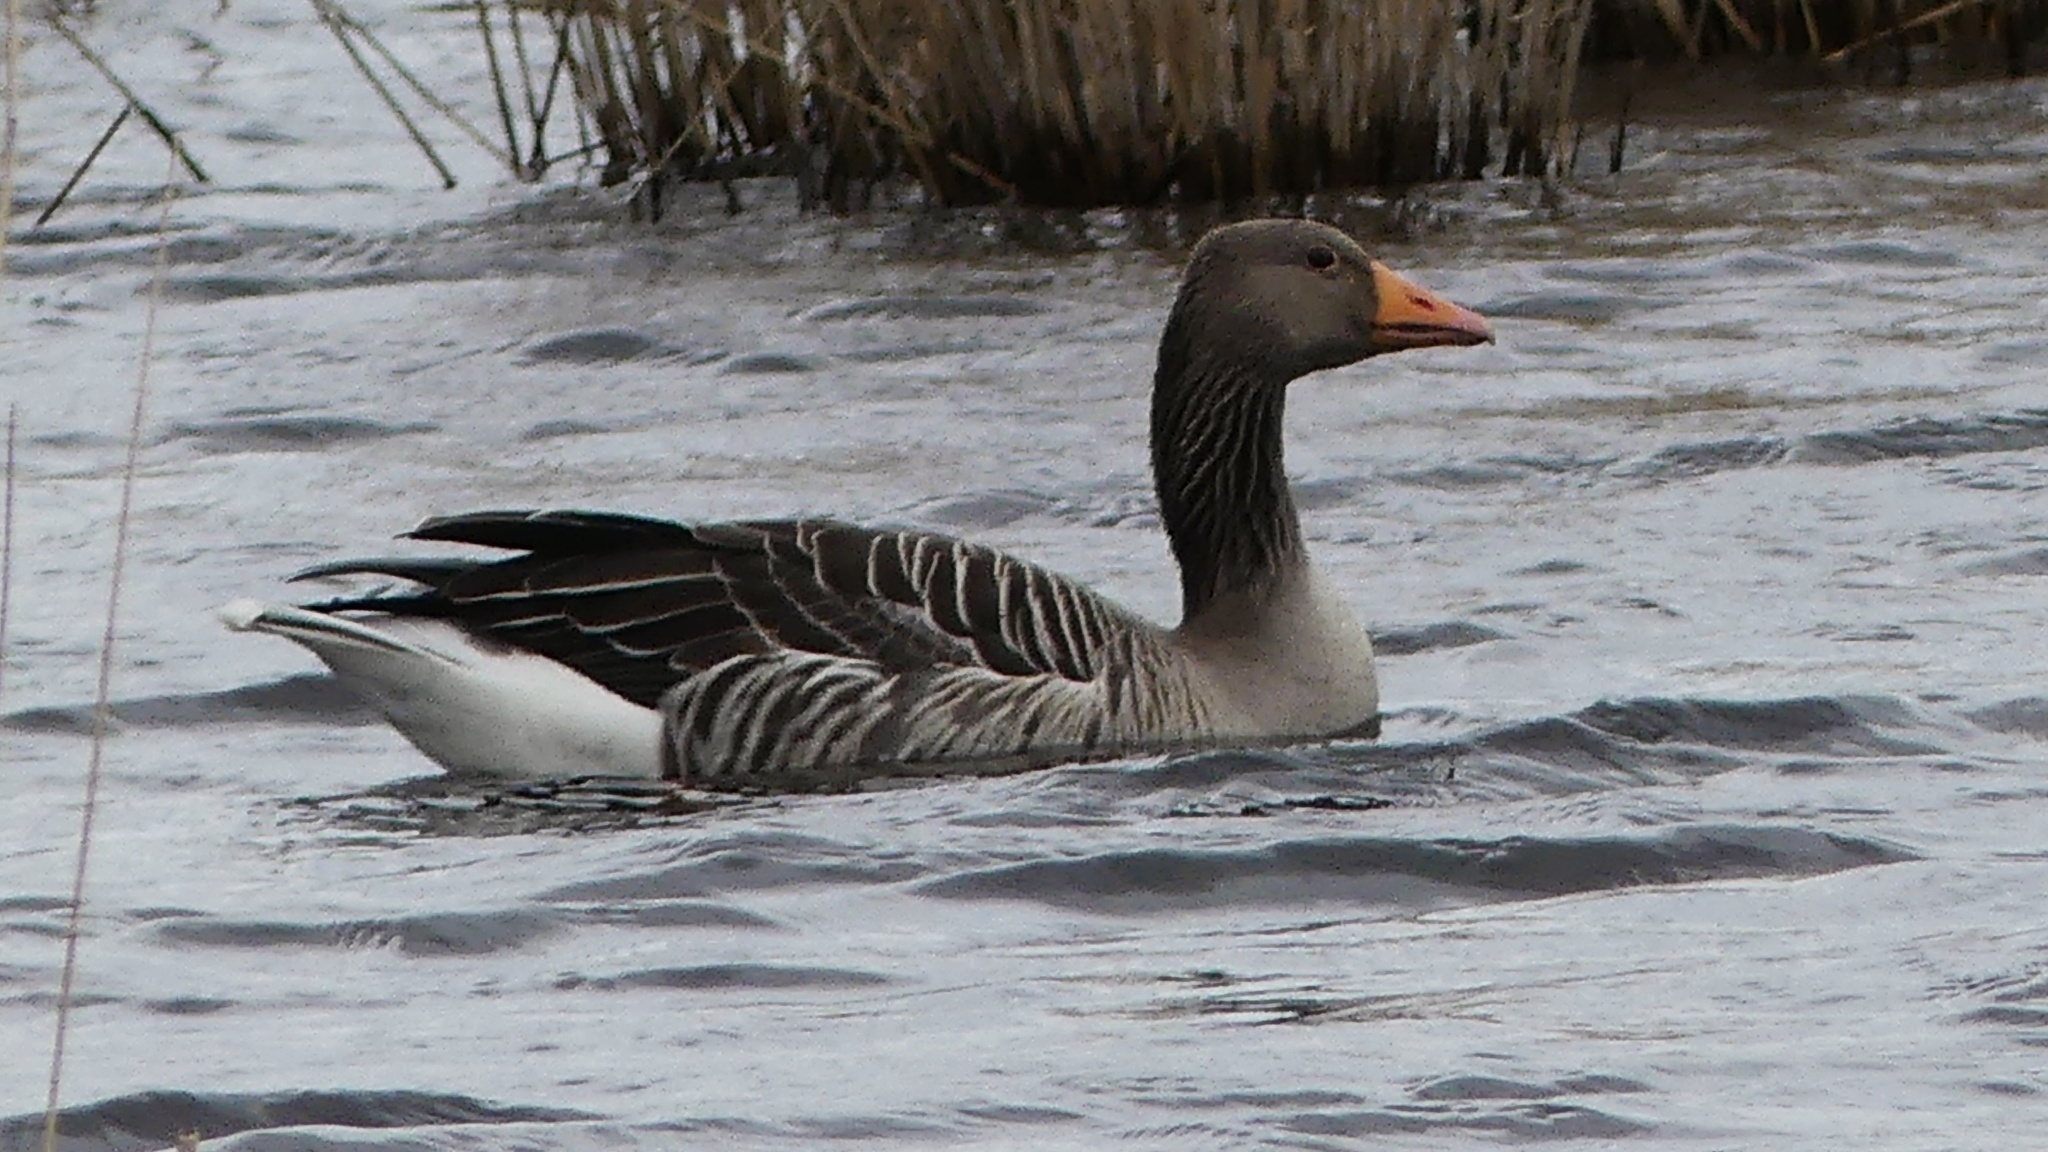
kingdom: Animalia
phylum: Chordata
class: Aves
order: Anseriformes
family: Anatidae
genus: Anser
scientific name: Anser anser
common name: Greylag goose
